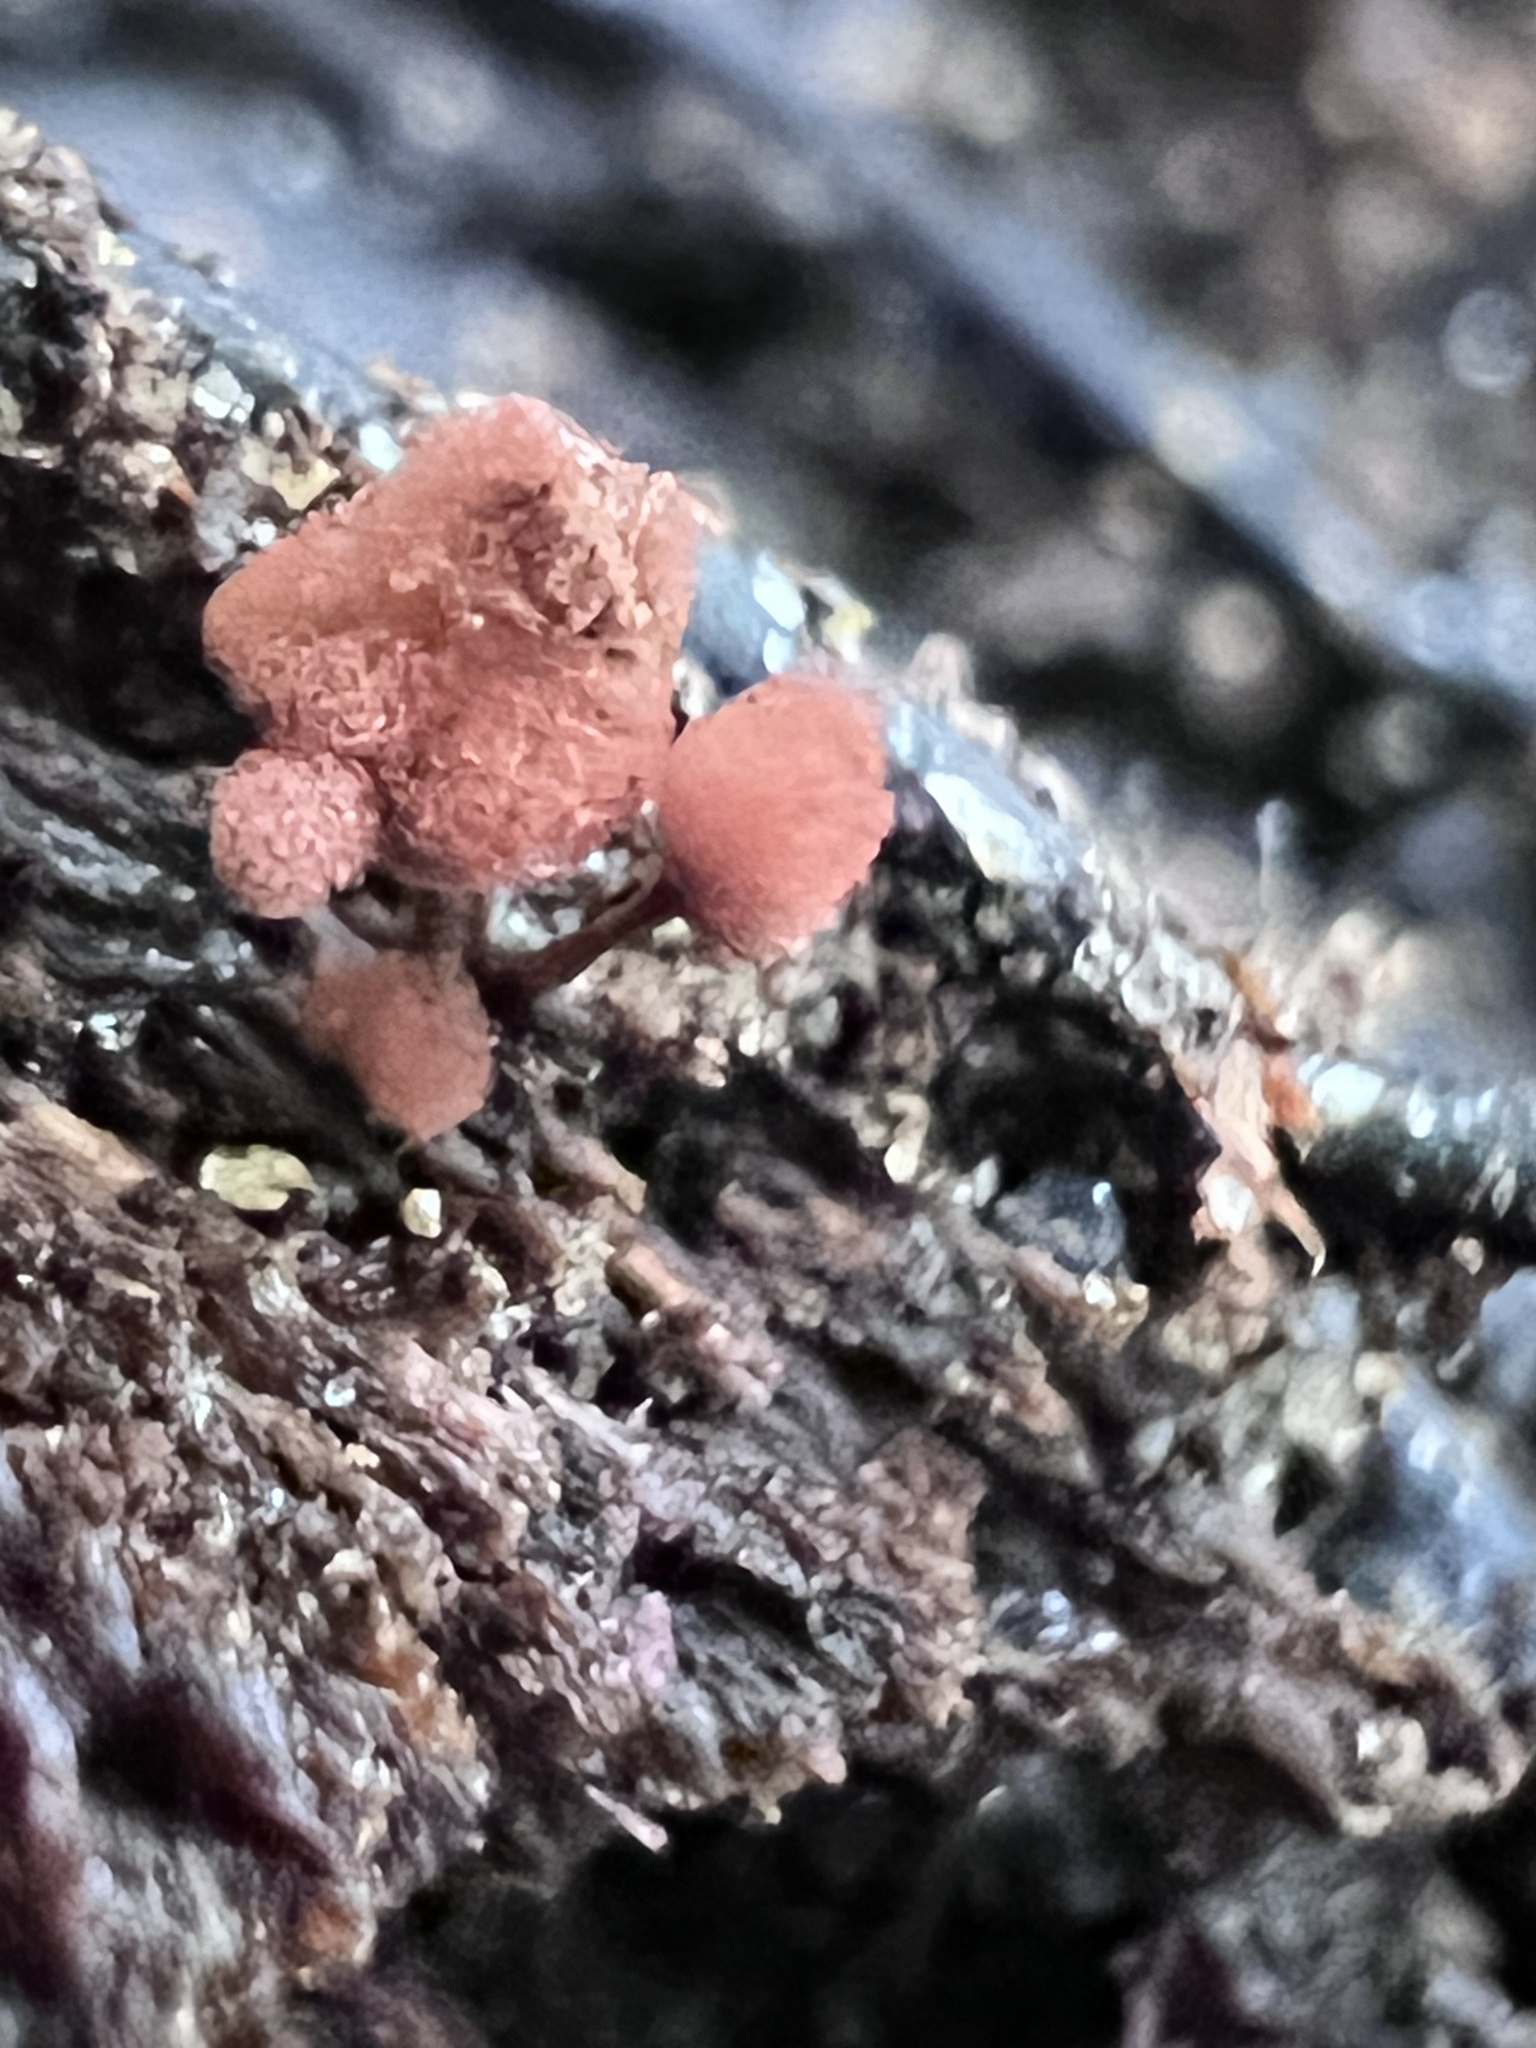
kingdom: Protozoa
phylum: Mycetozoa
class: Myxomycetes
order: Trichiales
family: Arcyriaceae
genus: Arcyria
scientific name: Arcyria denudata
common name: Carnival candy slime mold
